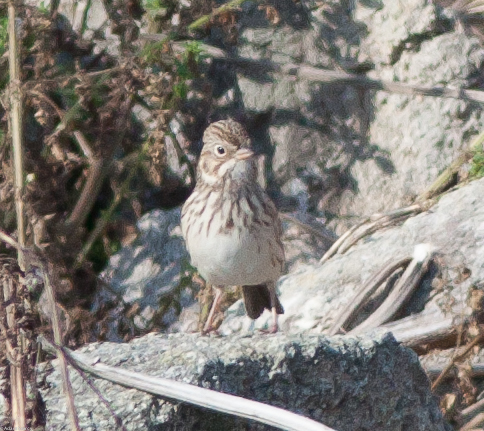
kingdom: Animalia
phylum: Chordata
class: Aves
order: Passeriformes
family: Passerellidae
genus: Pooecetes
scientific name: Pooecetes gramineus
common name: Vesper sparrow
